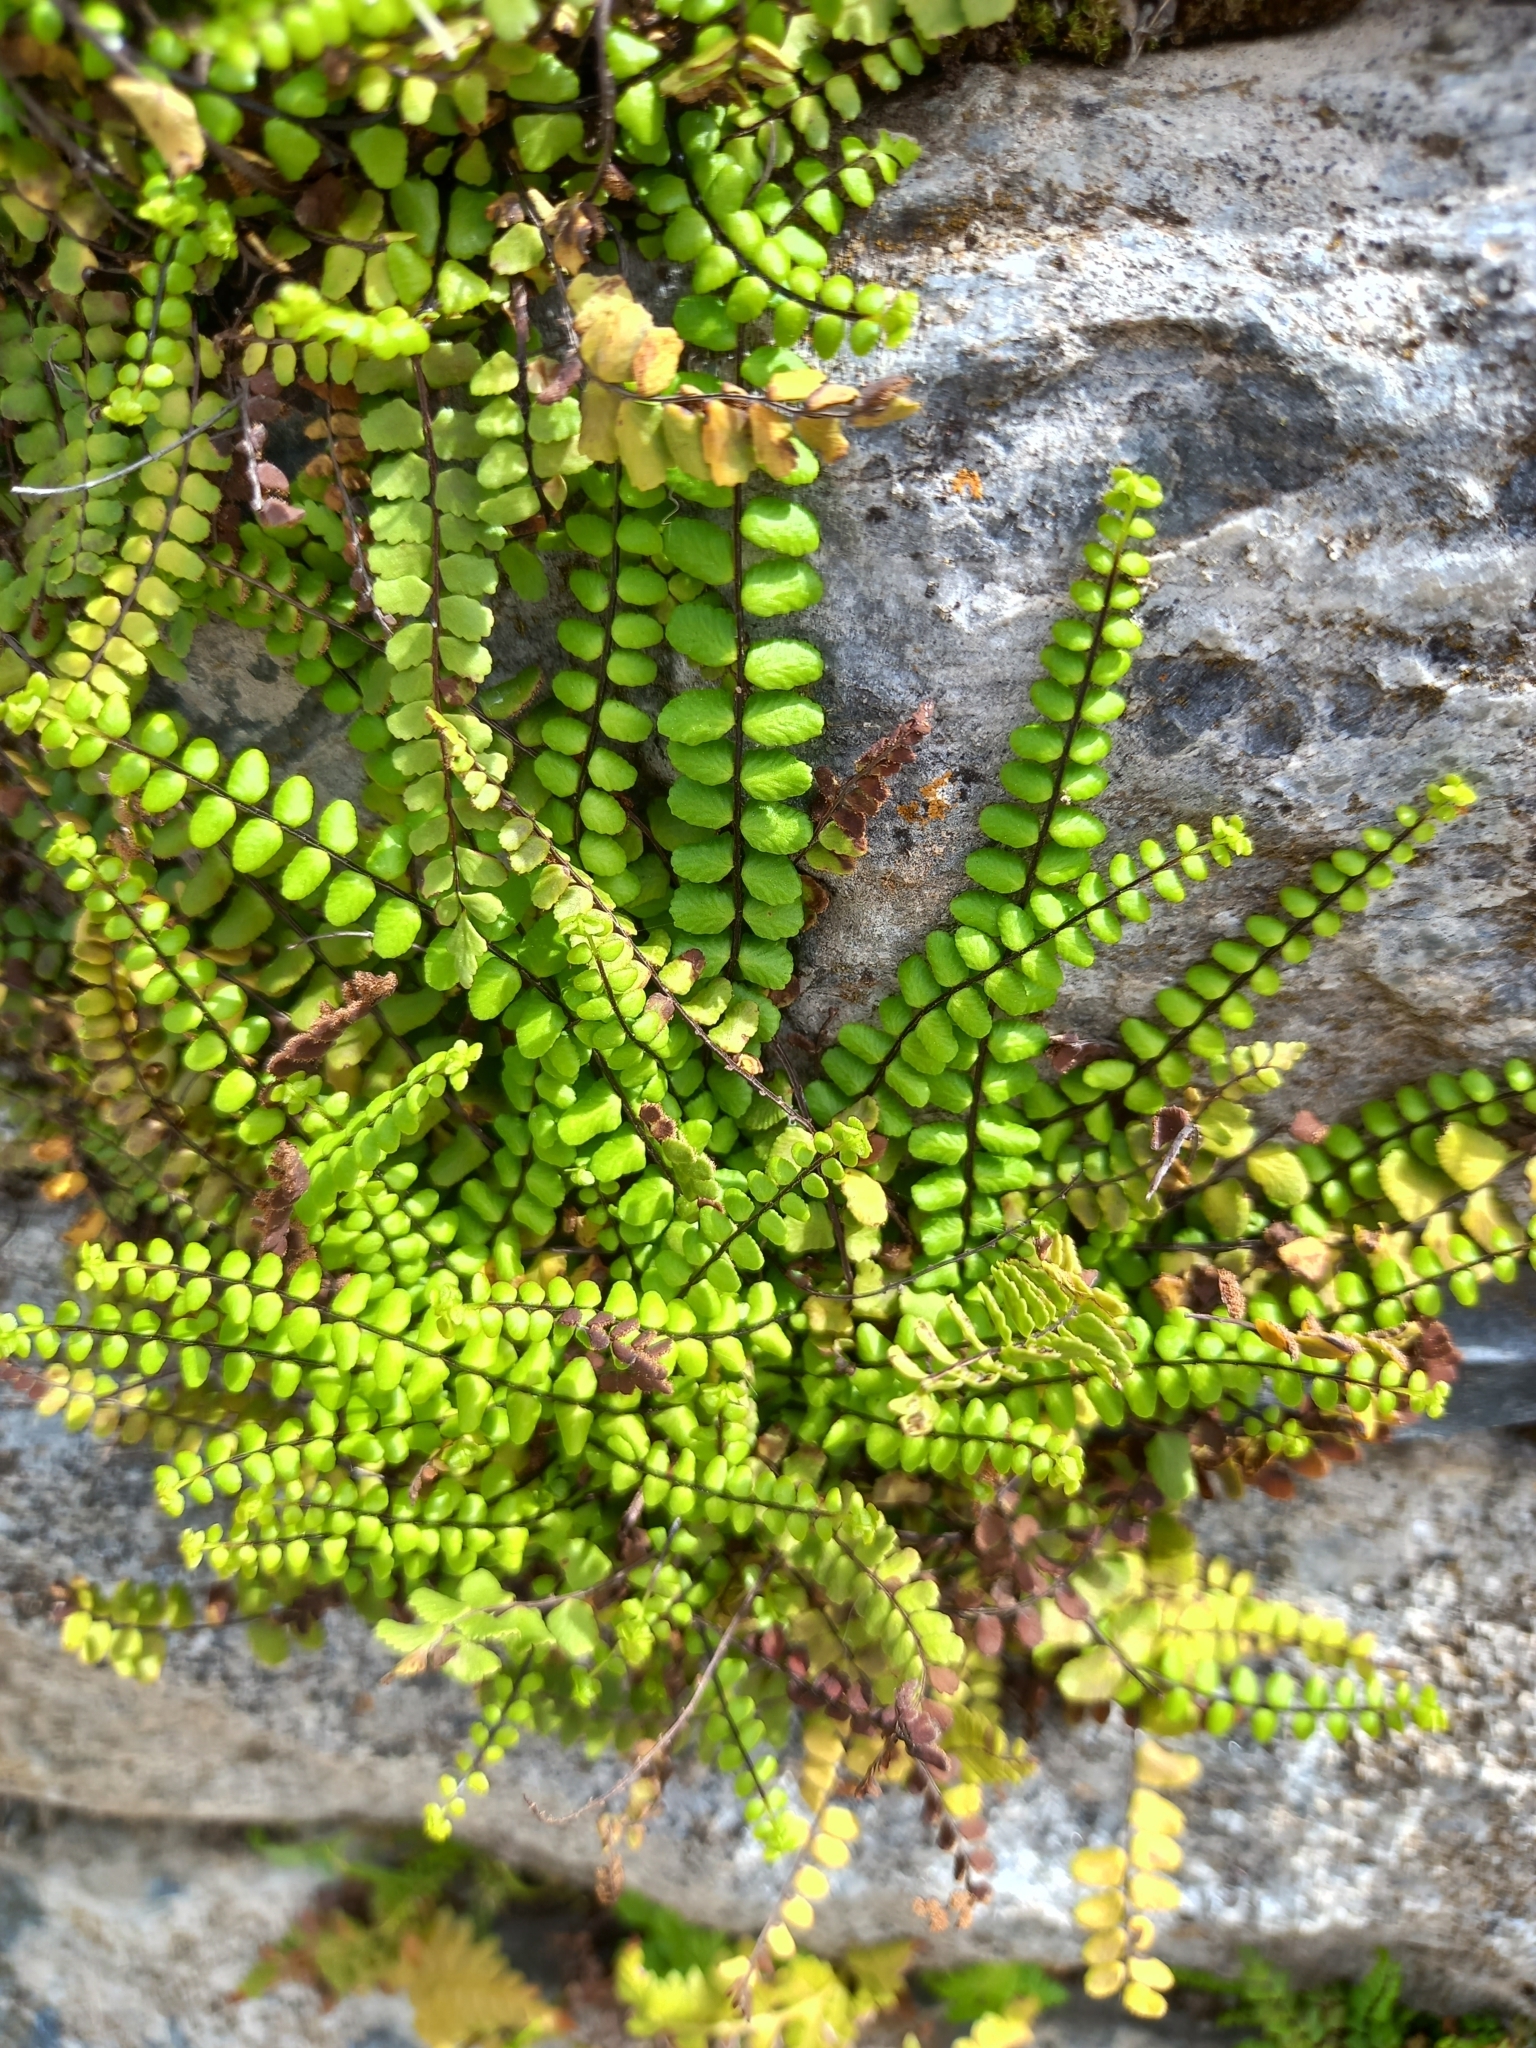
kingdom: Plantae
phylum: Tracheophyta
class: Polypodiopsida
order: Polypodiales
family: Aspleniaceae
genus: Asplenium
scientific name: Asplenium trichomanes
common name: Maidenhair spleenwort
